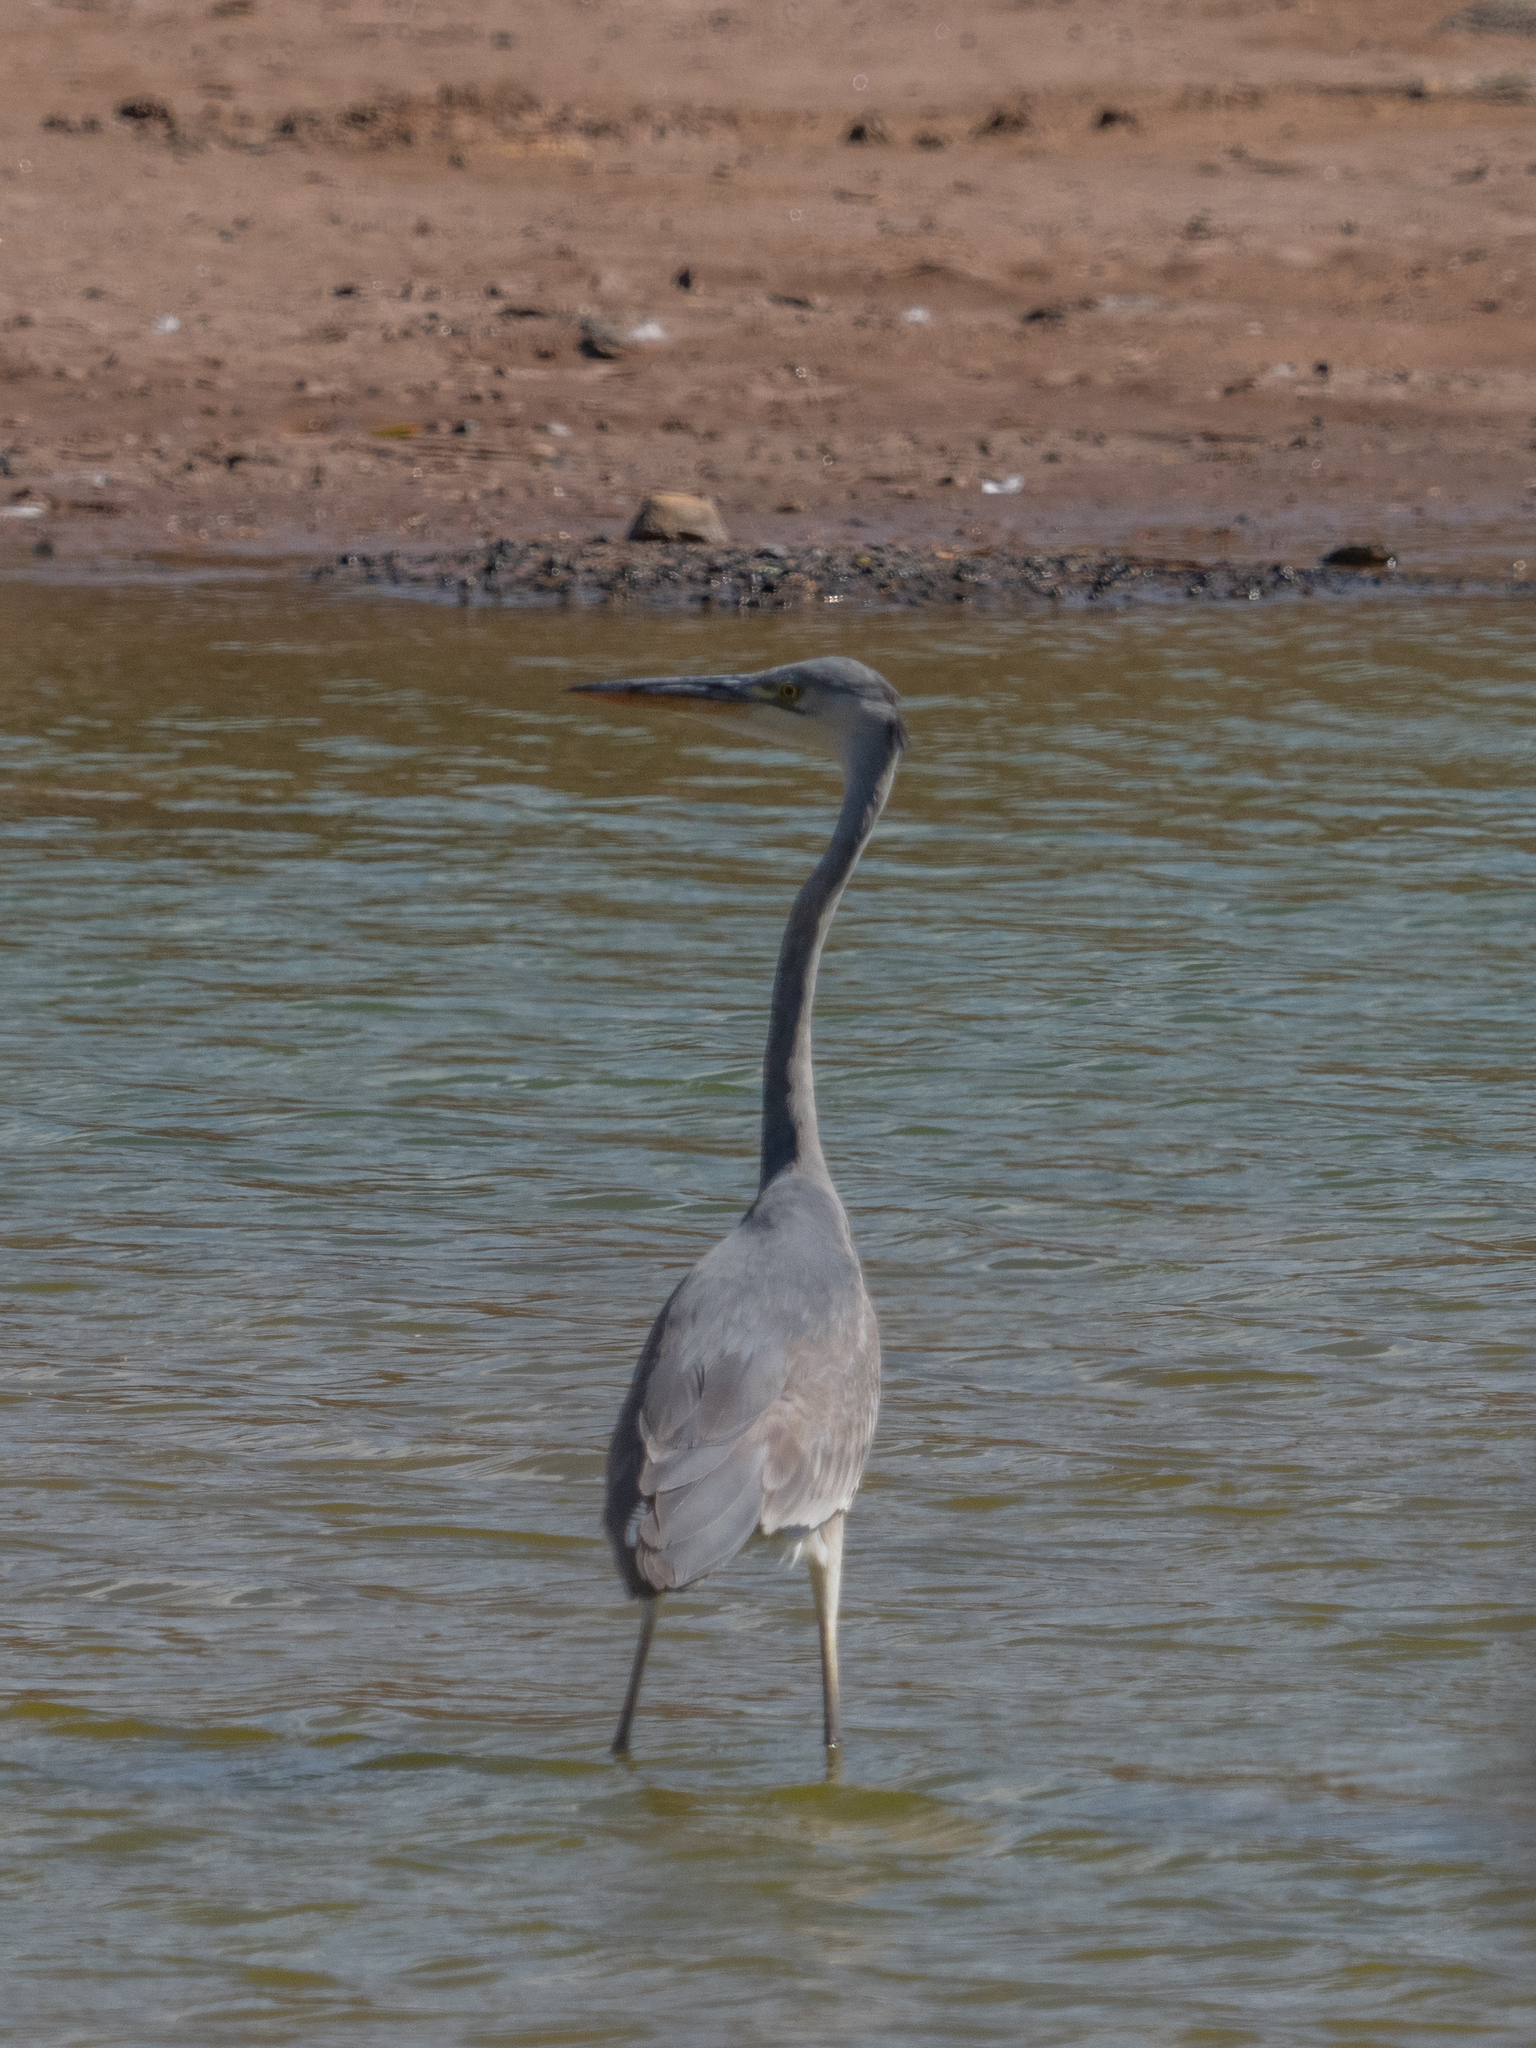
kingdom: Animalia
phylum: Chordata
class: Aves
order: Pelecaniformes
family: Ardeidae
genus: Ardea
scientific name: Ardea cinerea
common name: Grey heron
